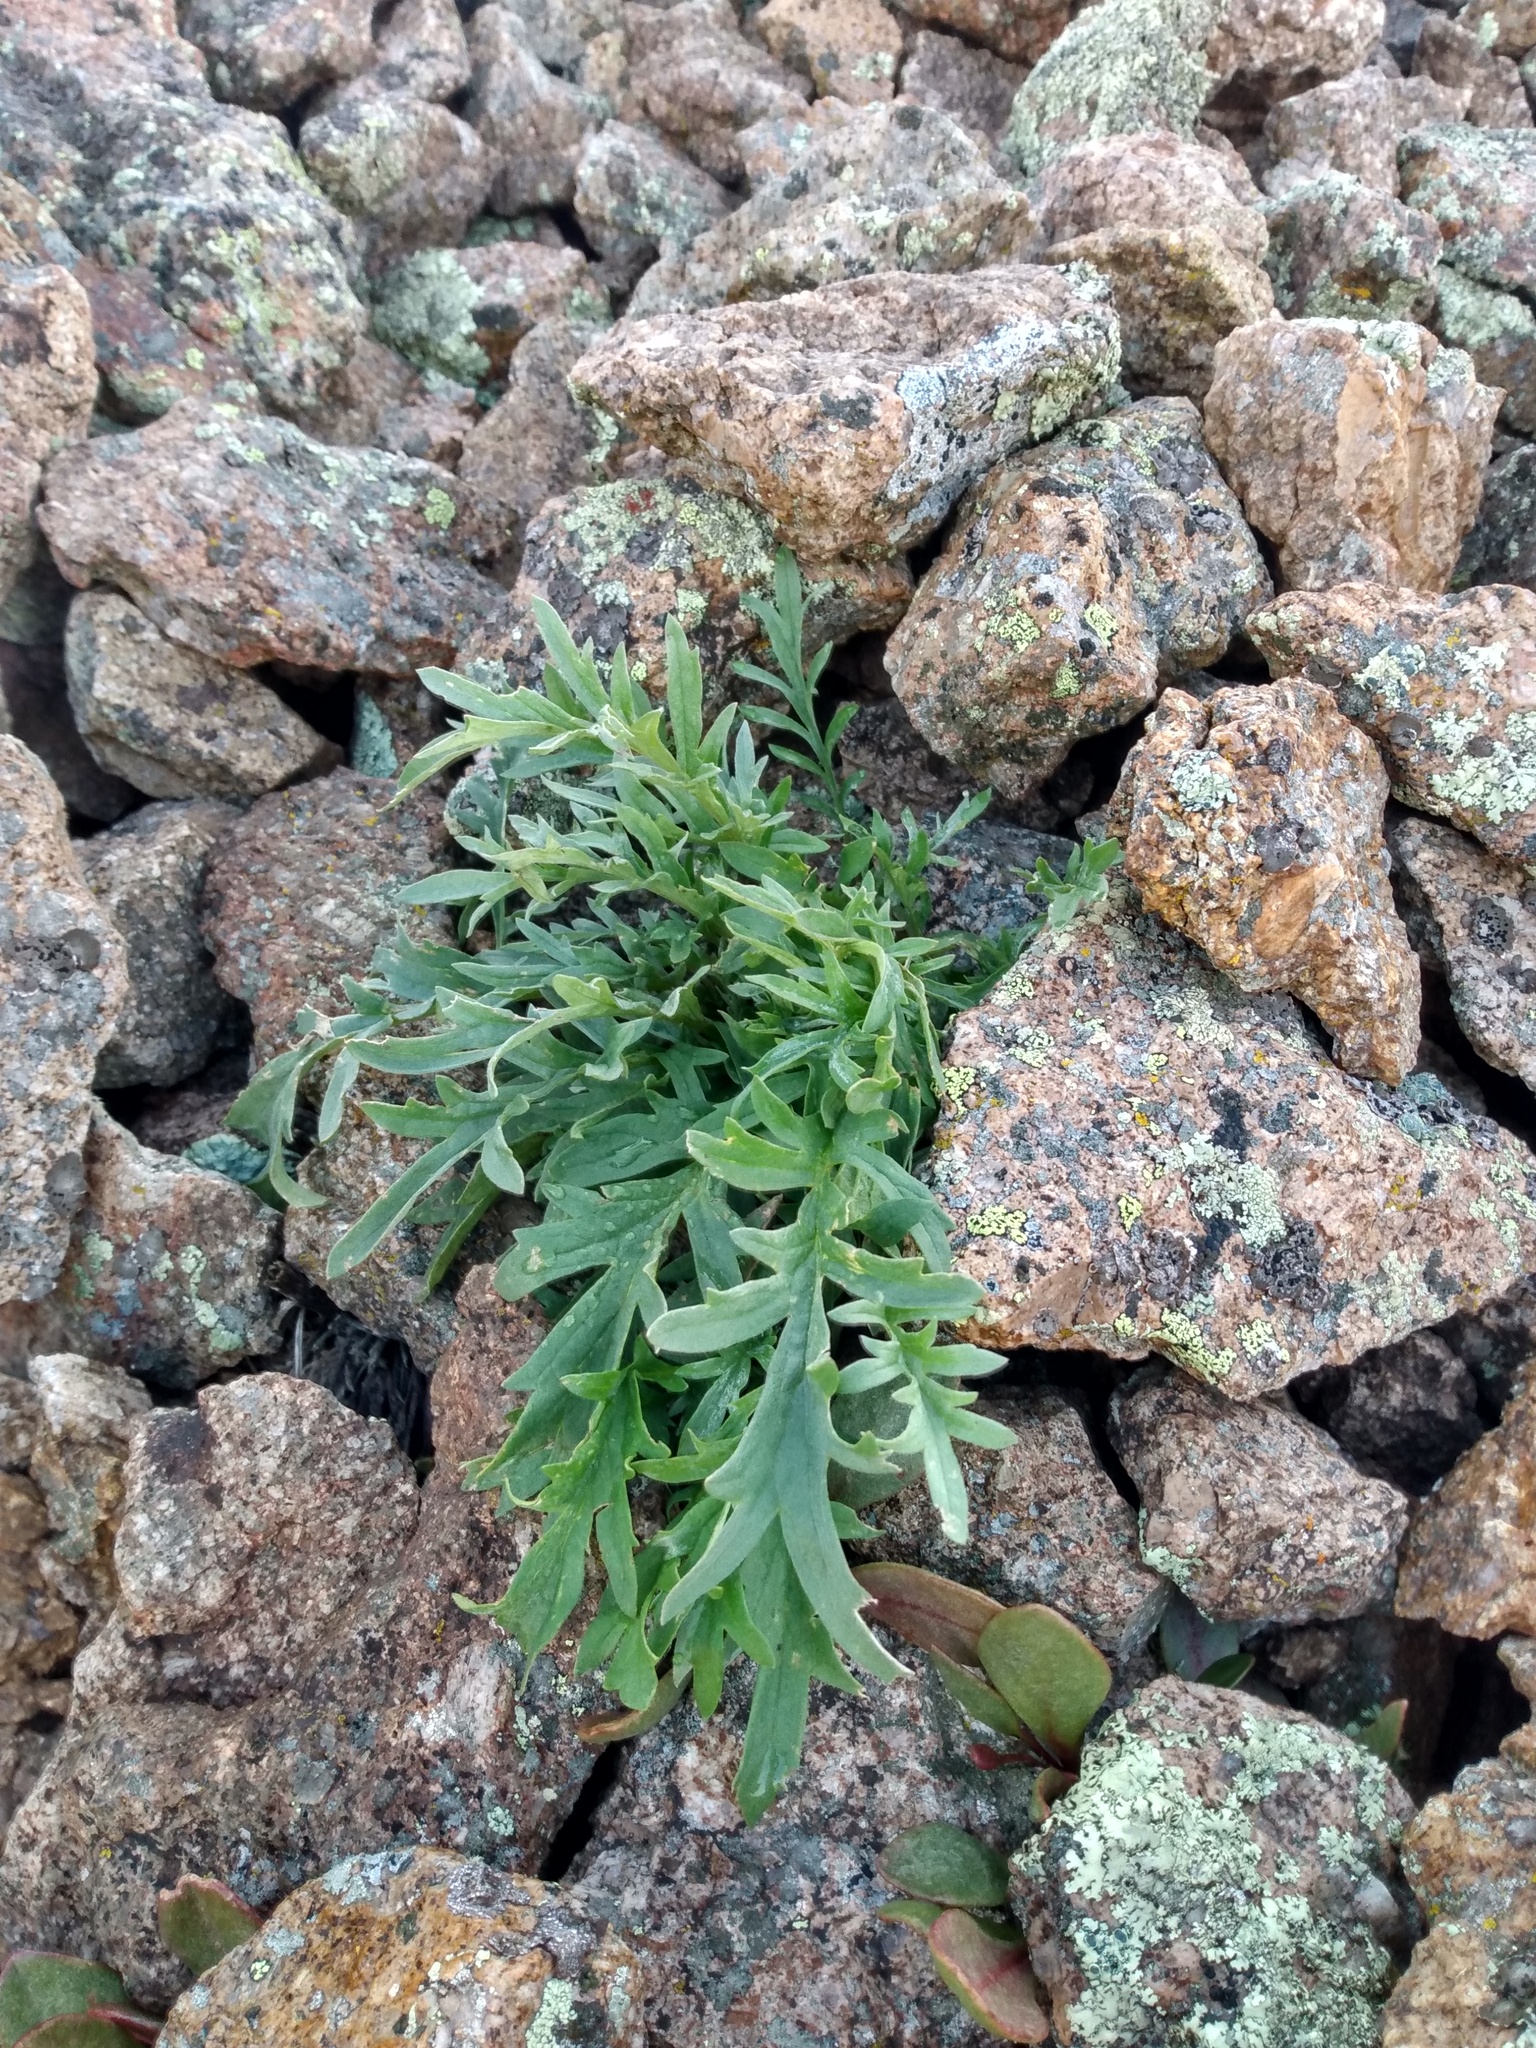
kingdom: Plantae
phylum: Tracheophyta
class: Magnoliopsida
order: Boraginales
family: Hydrophyllaceae
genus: Phacelia
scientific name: Phacelia sericea
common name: Silky phacelia
